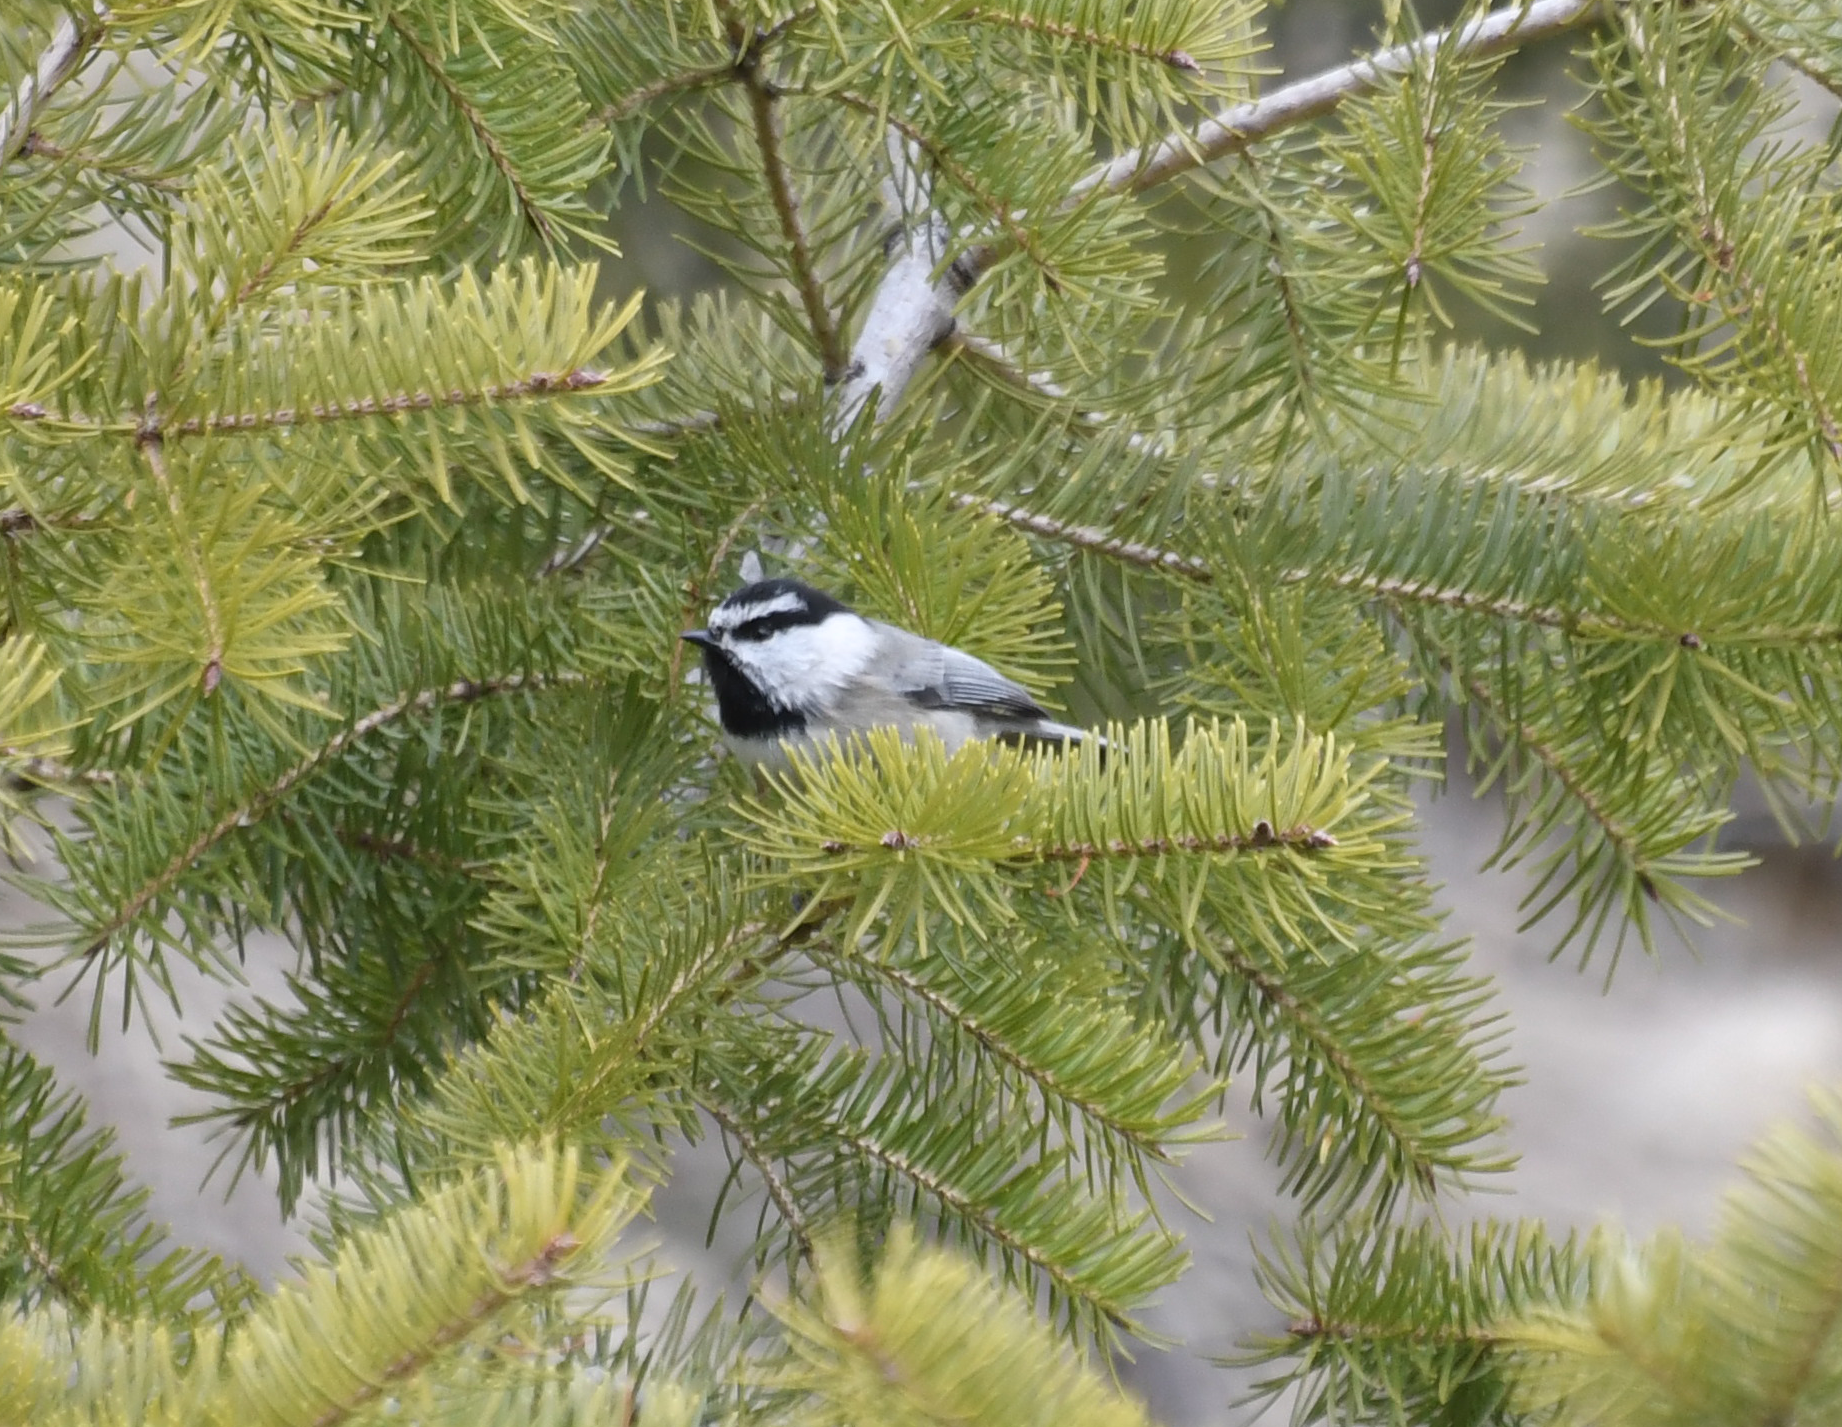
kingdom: Animalia
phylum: Chordata
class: Aves
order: Passeriformes
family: Paridae
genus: Poecile
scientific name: Poecile gambeli
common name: Mountain chickadee
